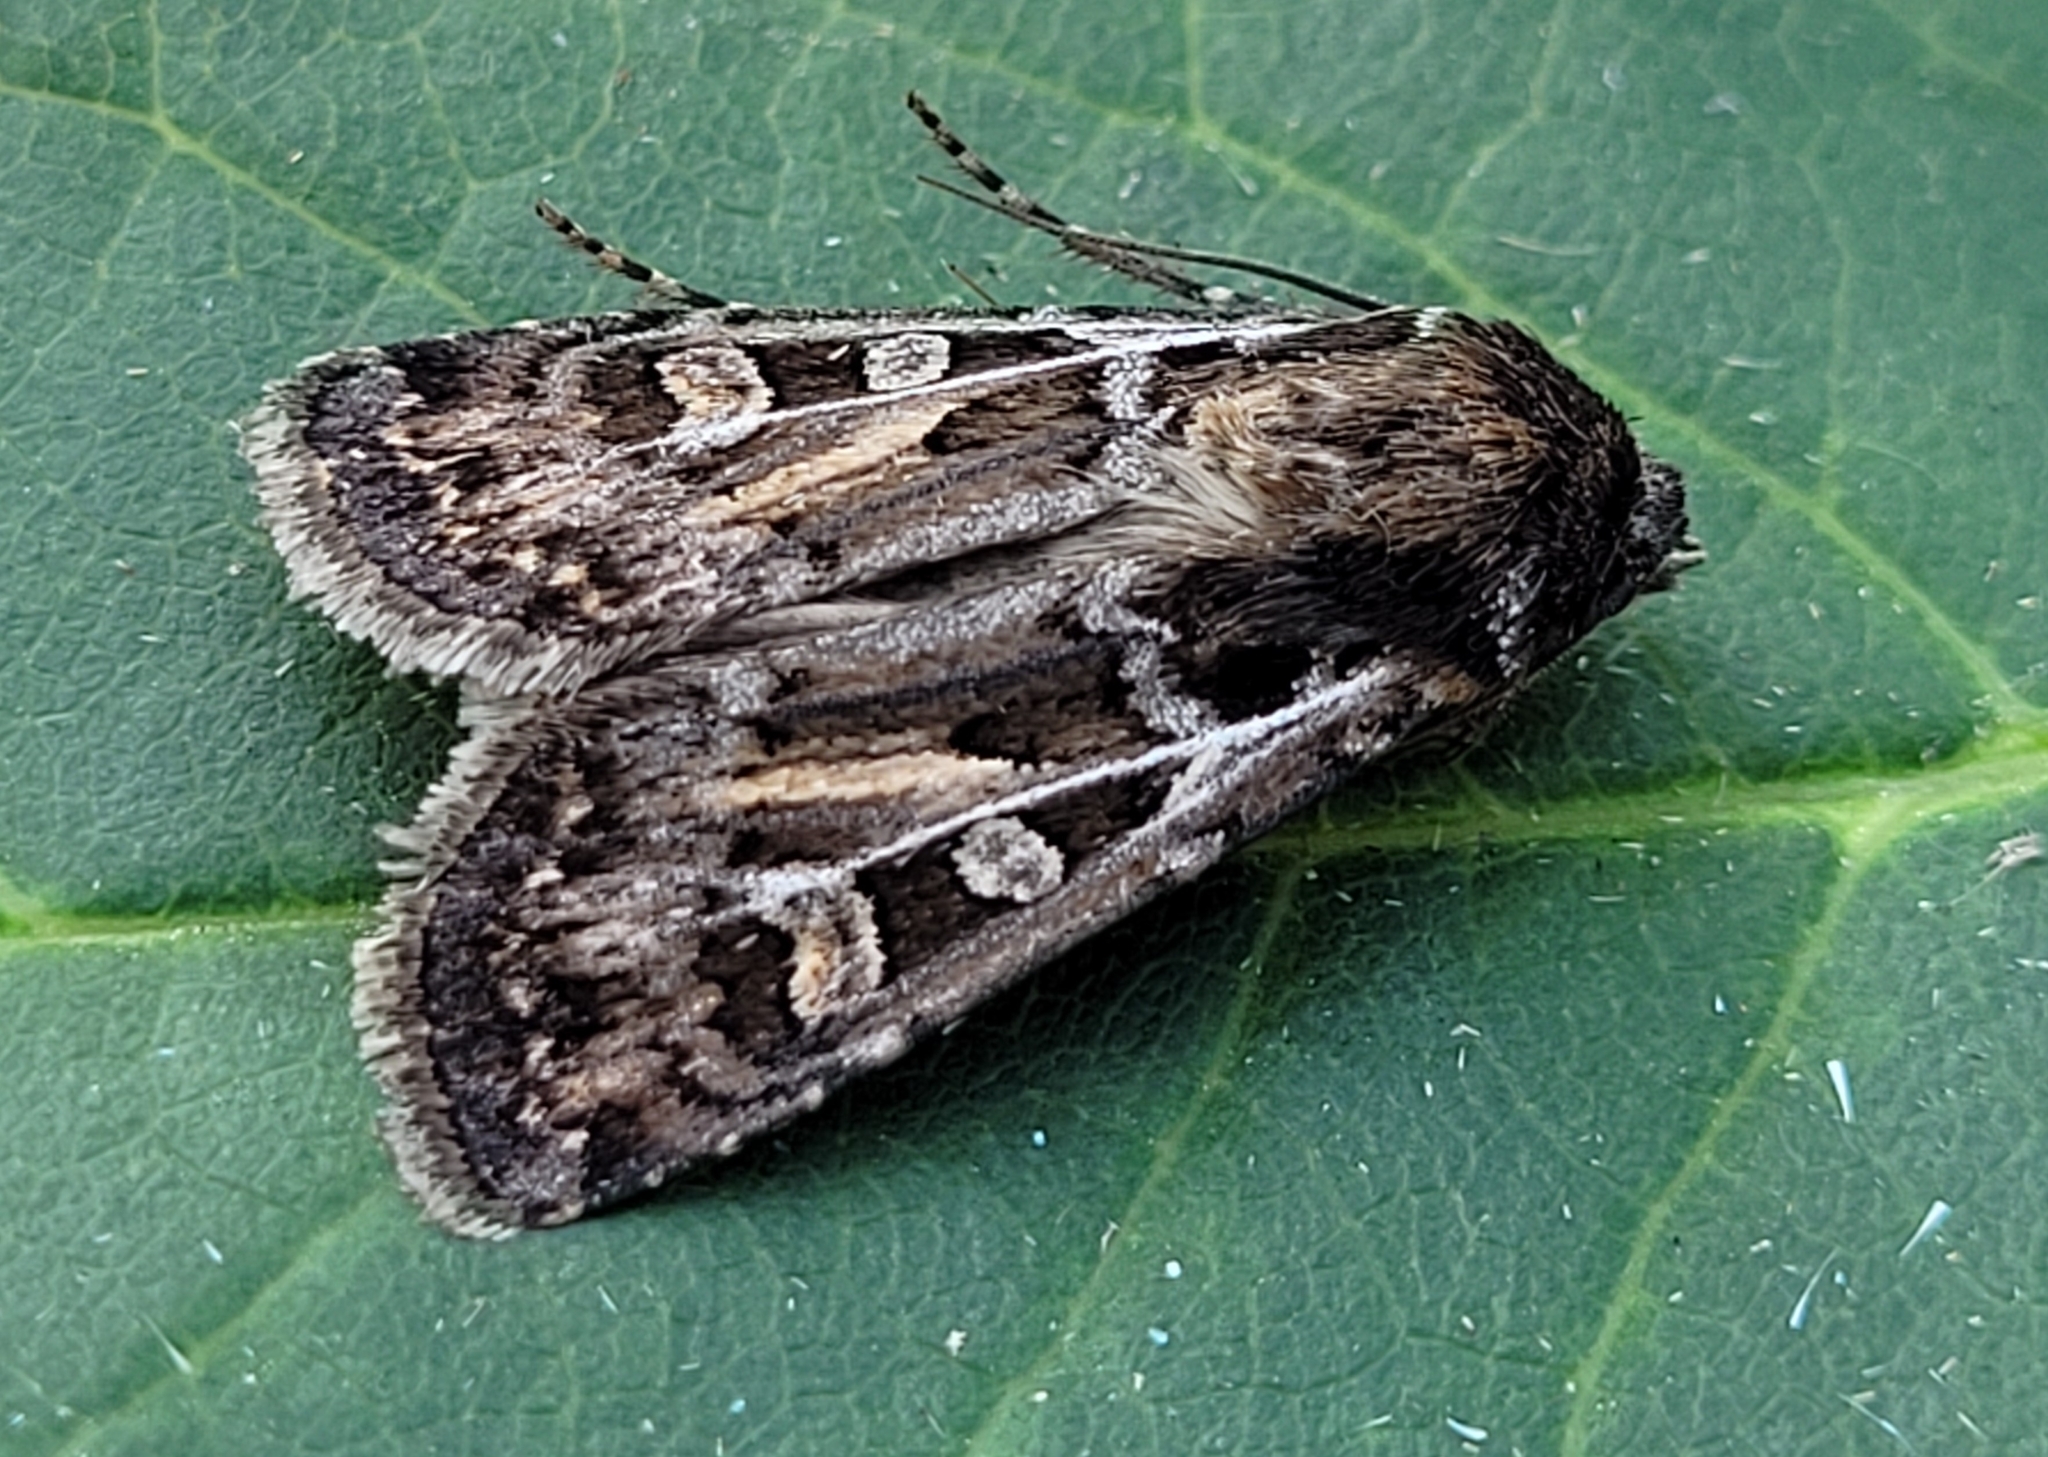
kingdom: Animalia
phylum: Arthropoda
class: Insecta
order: Lepidoptera
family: Noctuidae
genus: Euxoa
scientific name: Euxoa ridingsiana
